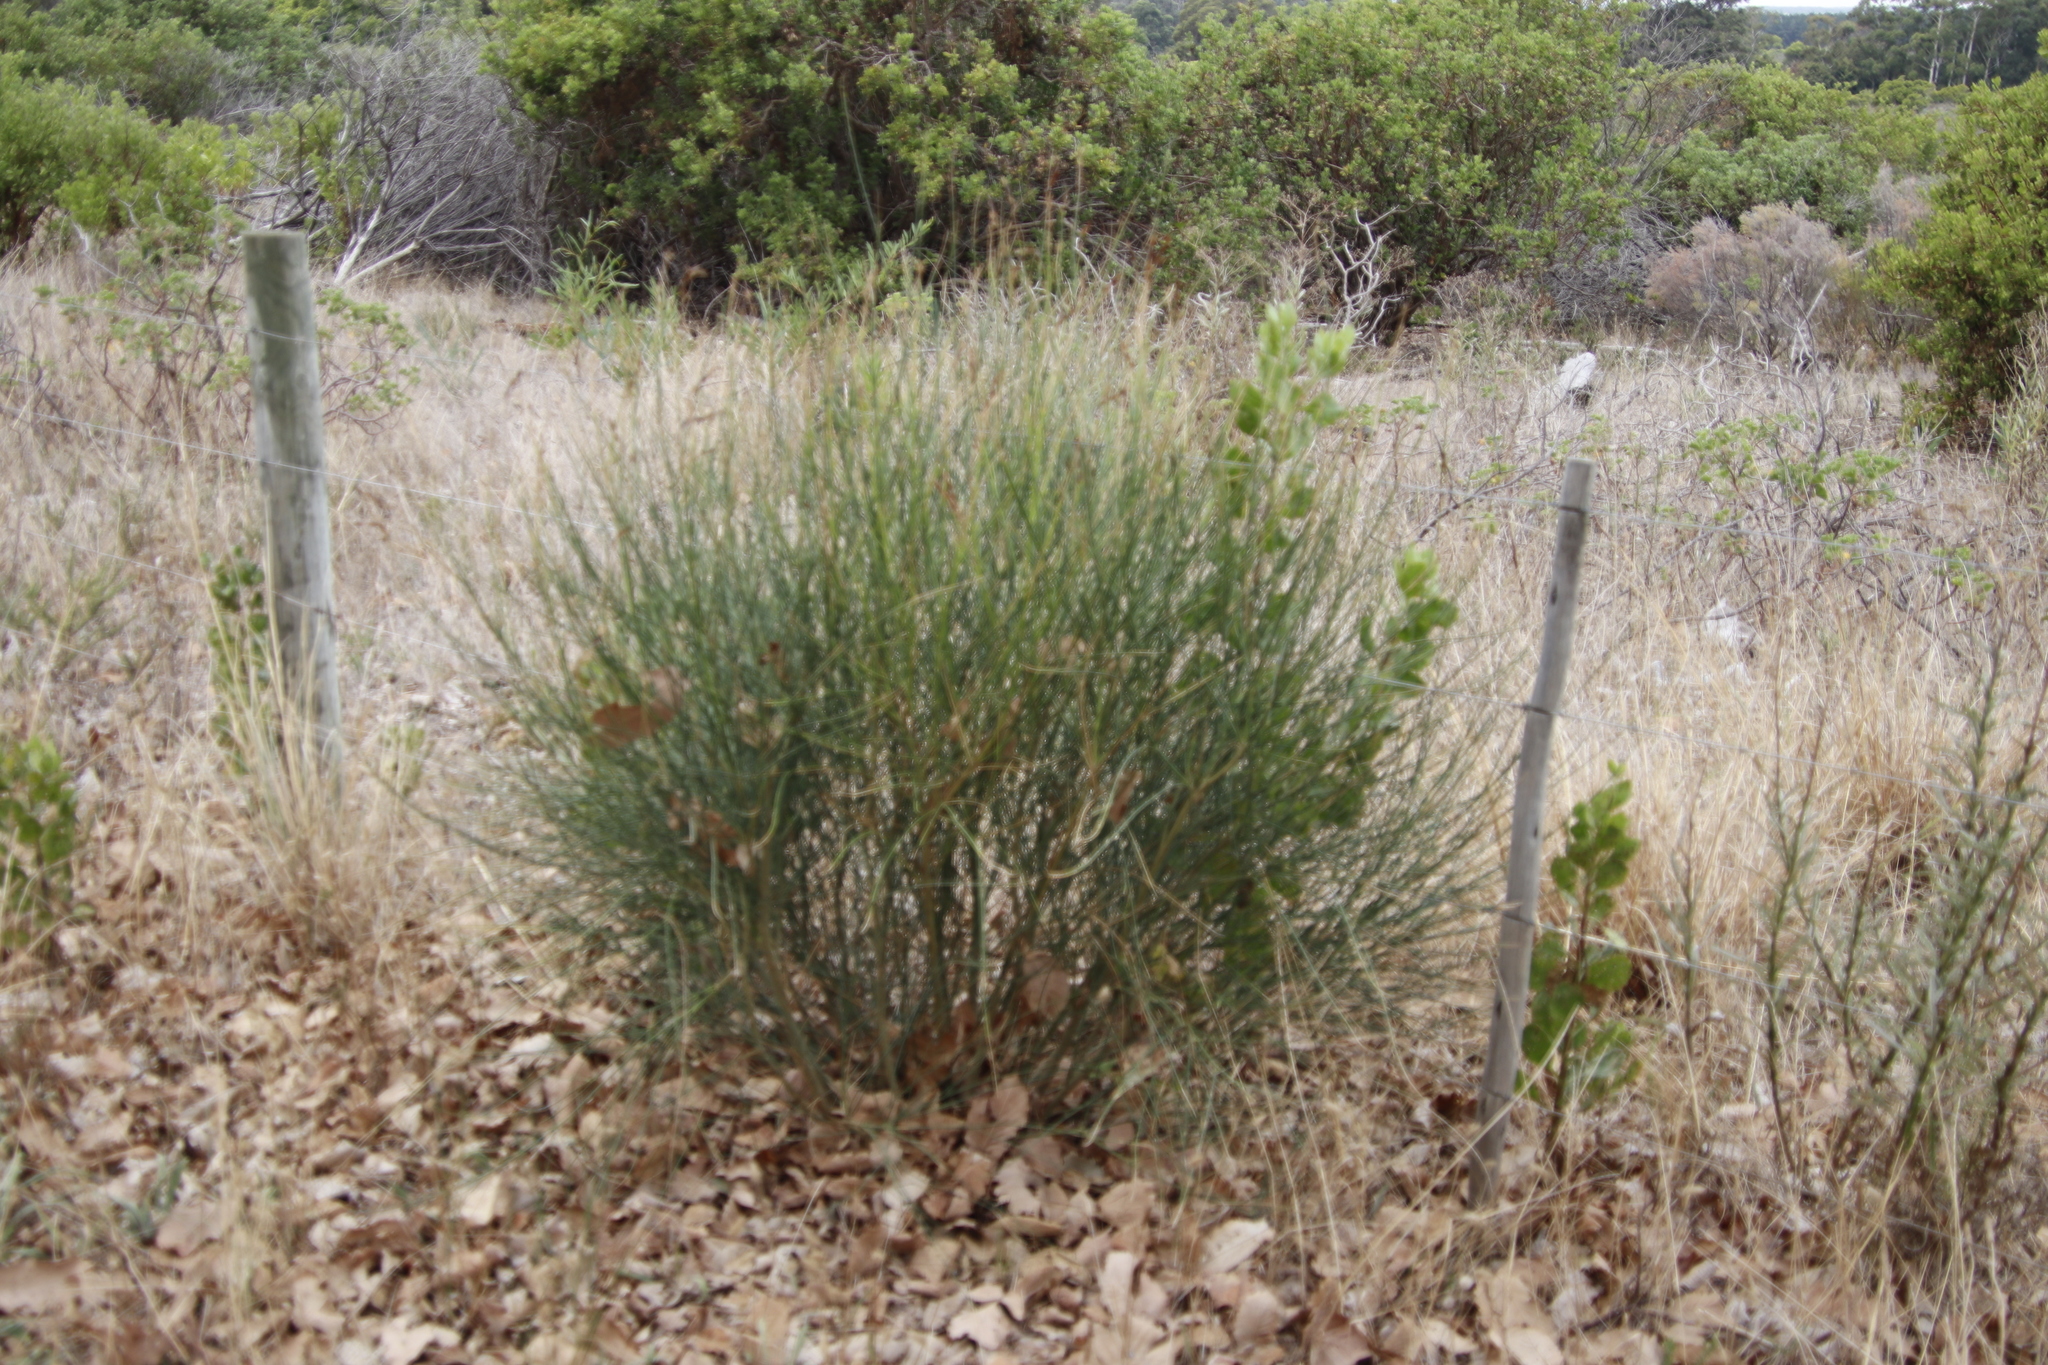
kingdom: Plantae
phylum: Tracheophyta
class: Magnoliopsida
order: Fabales
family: Fabaceae
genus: Spartium
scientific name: Spartium junceum
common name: Spanish broom
